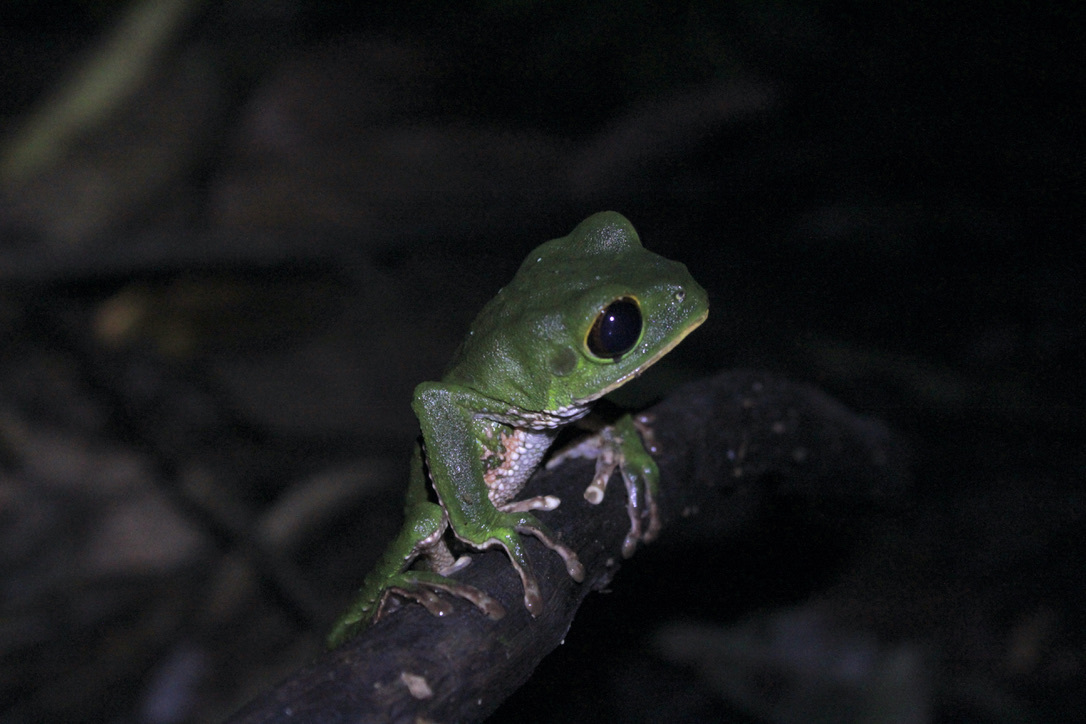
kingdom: Animalia
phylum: Chordata
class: Amphibia
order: Anura
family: Phyllomedusidae
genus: Phyllomedusa
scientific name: Phyllomedusa trinitatis
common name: Trinidad leaf-nesting frog
